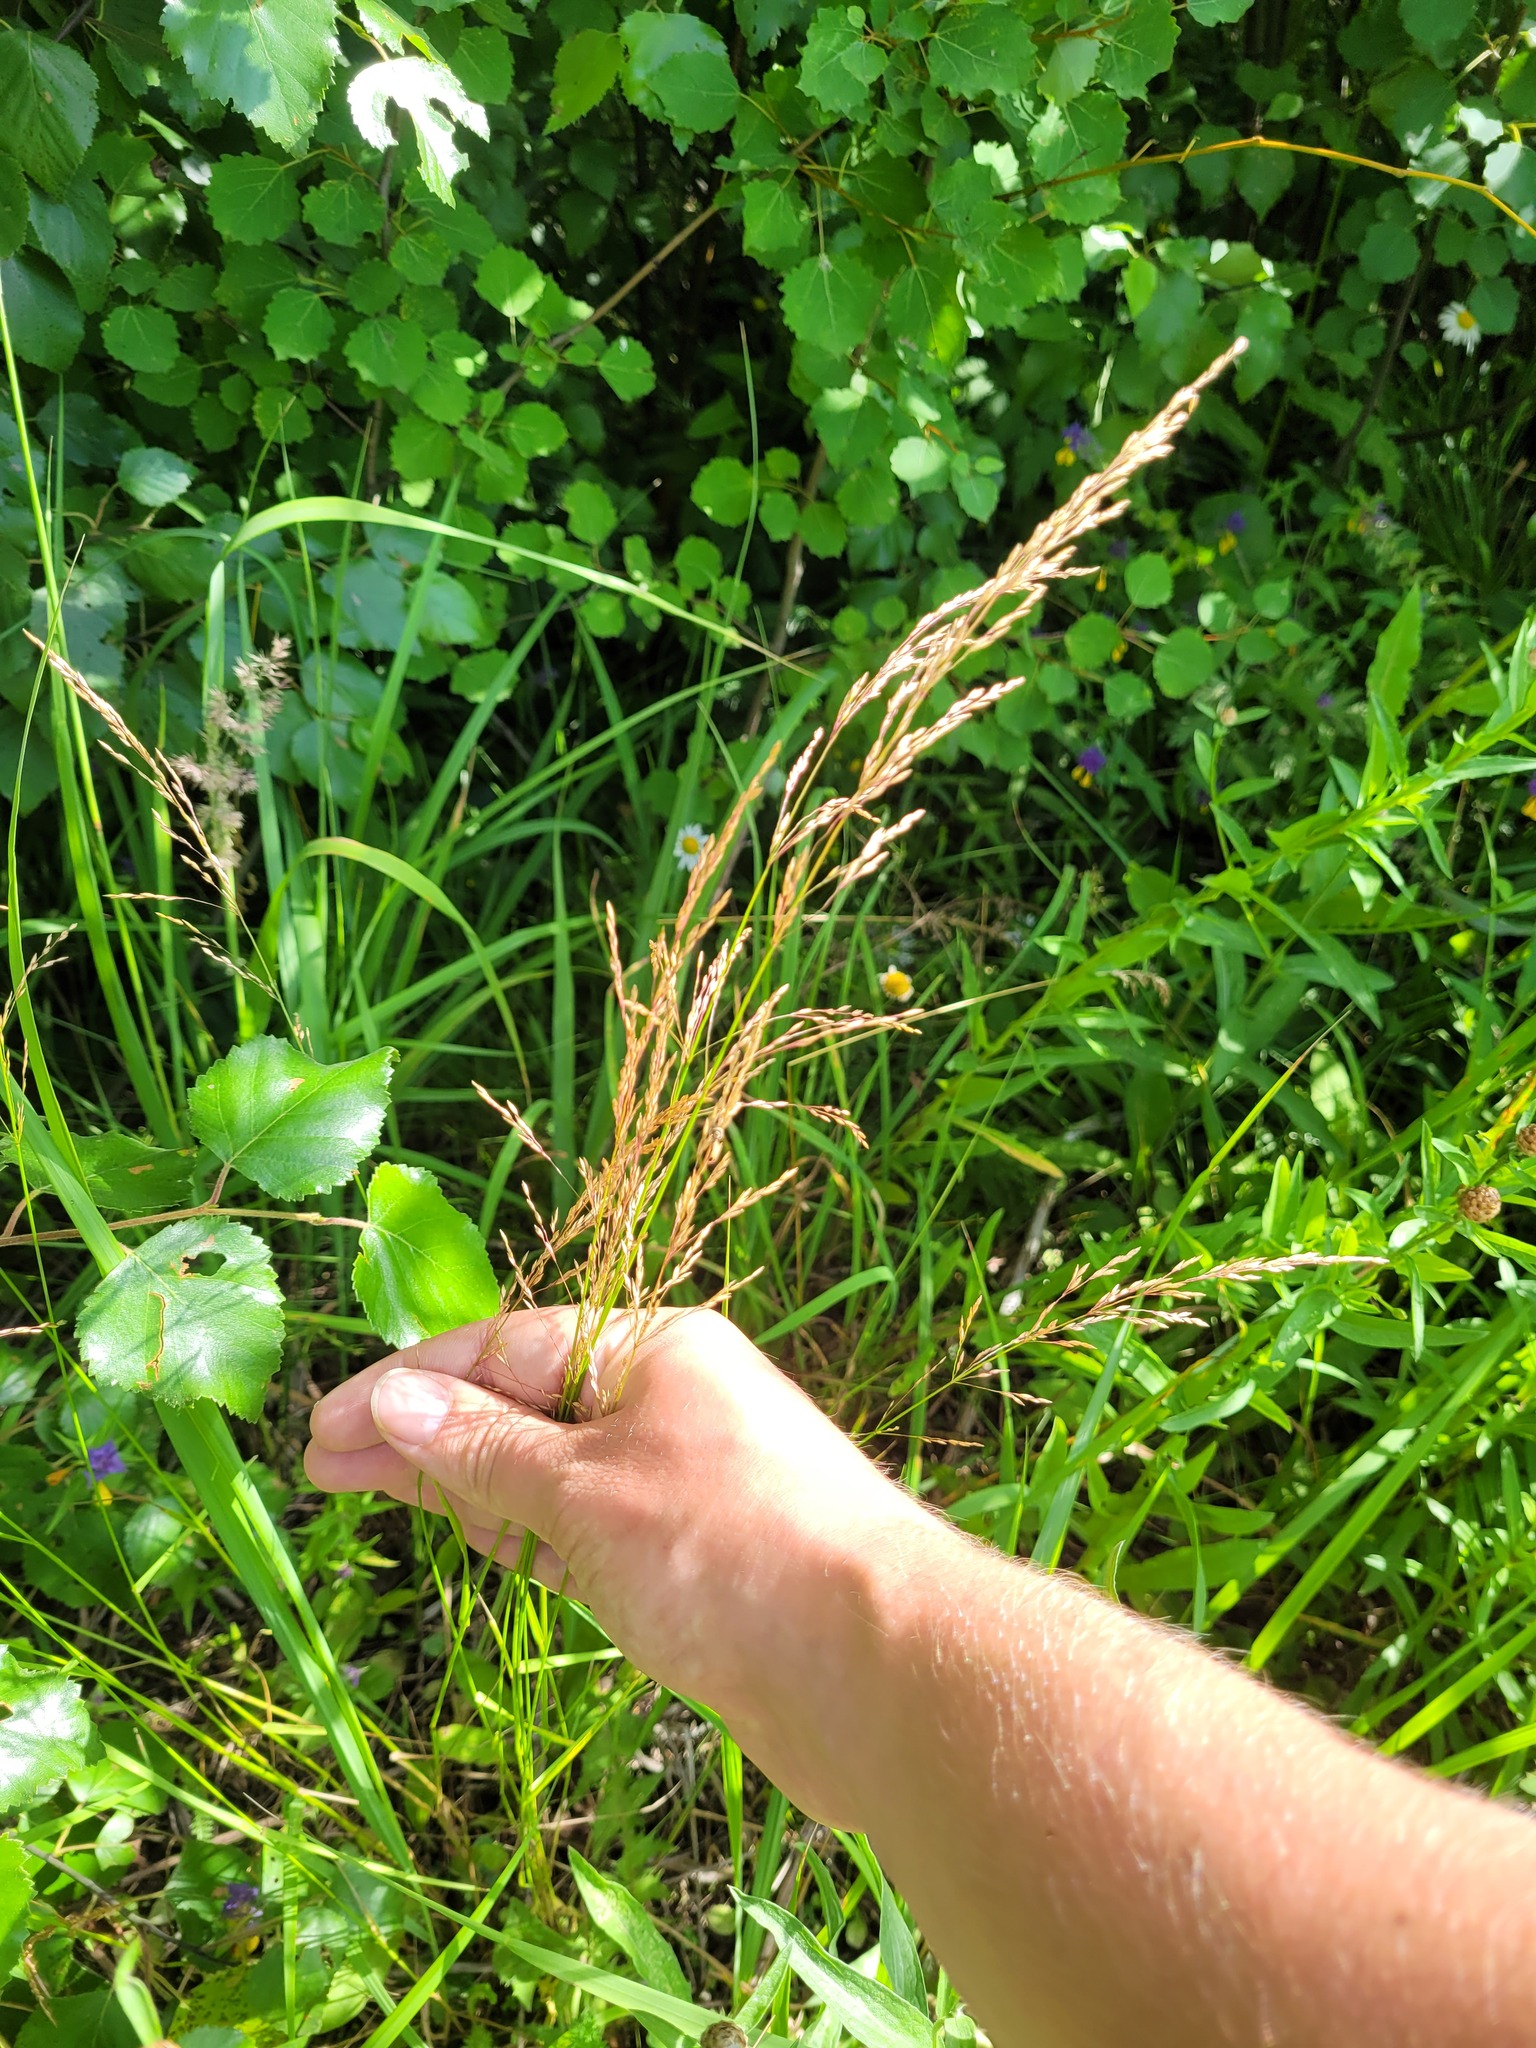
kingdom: Plantae
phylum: Tracheophyta
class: Liliopsida
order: Poales
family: Poaceae
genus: Poa
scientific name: Poa palustris
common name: Swamp meadow-grass
